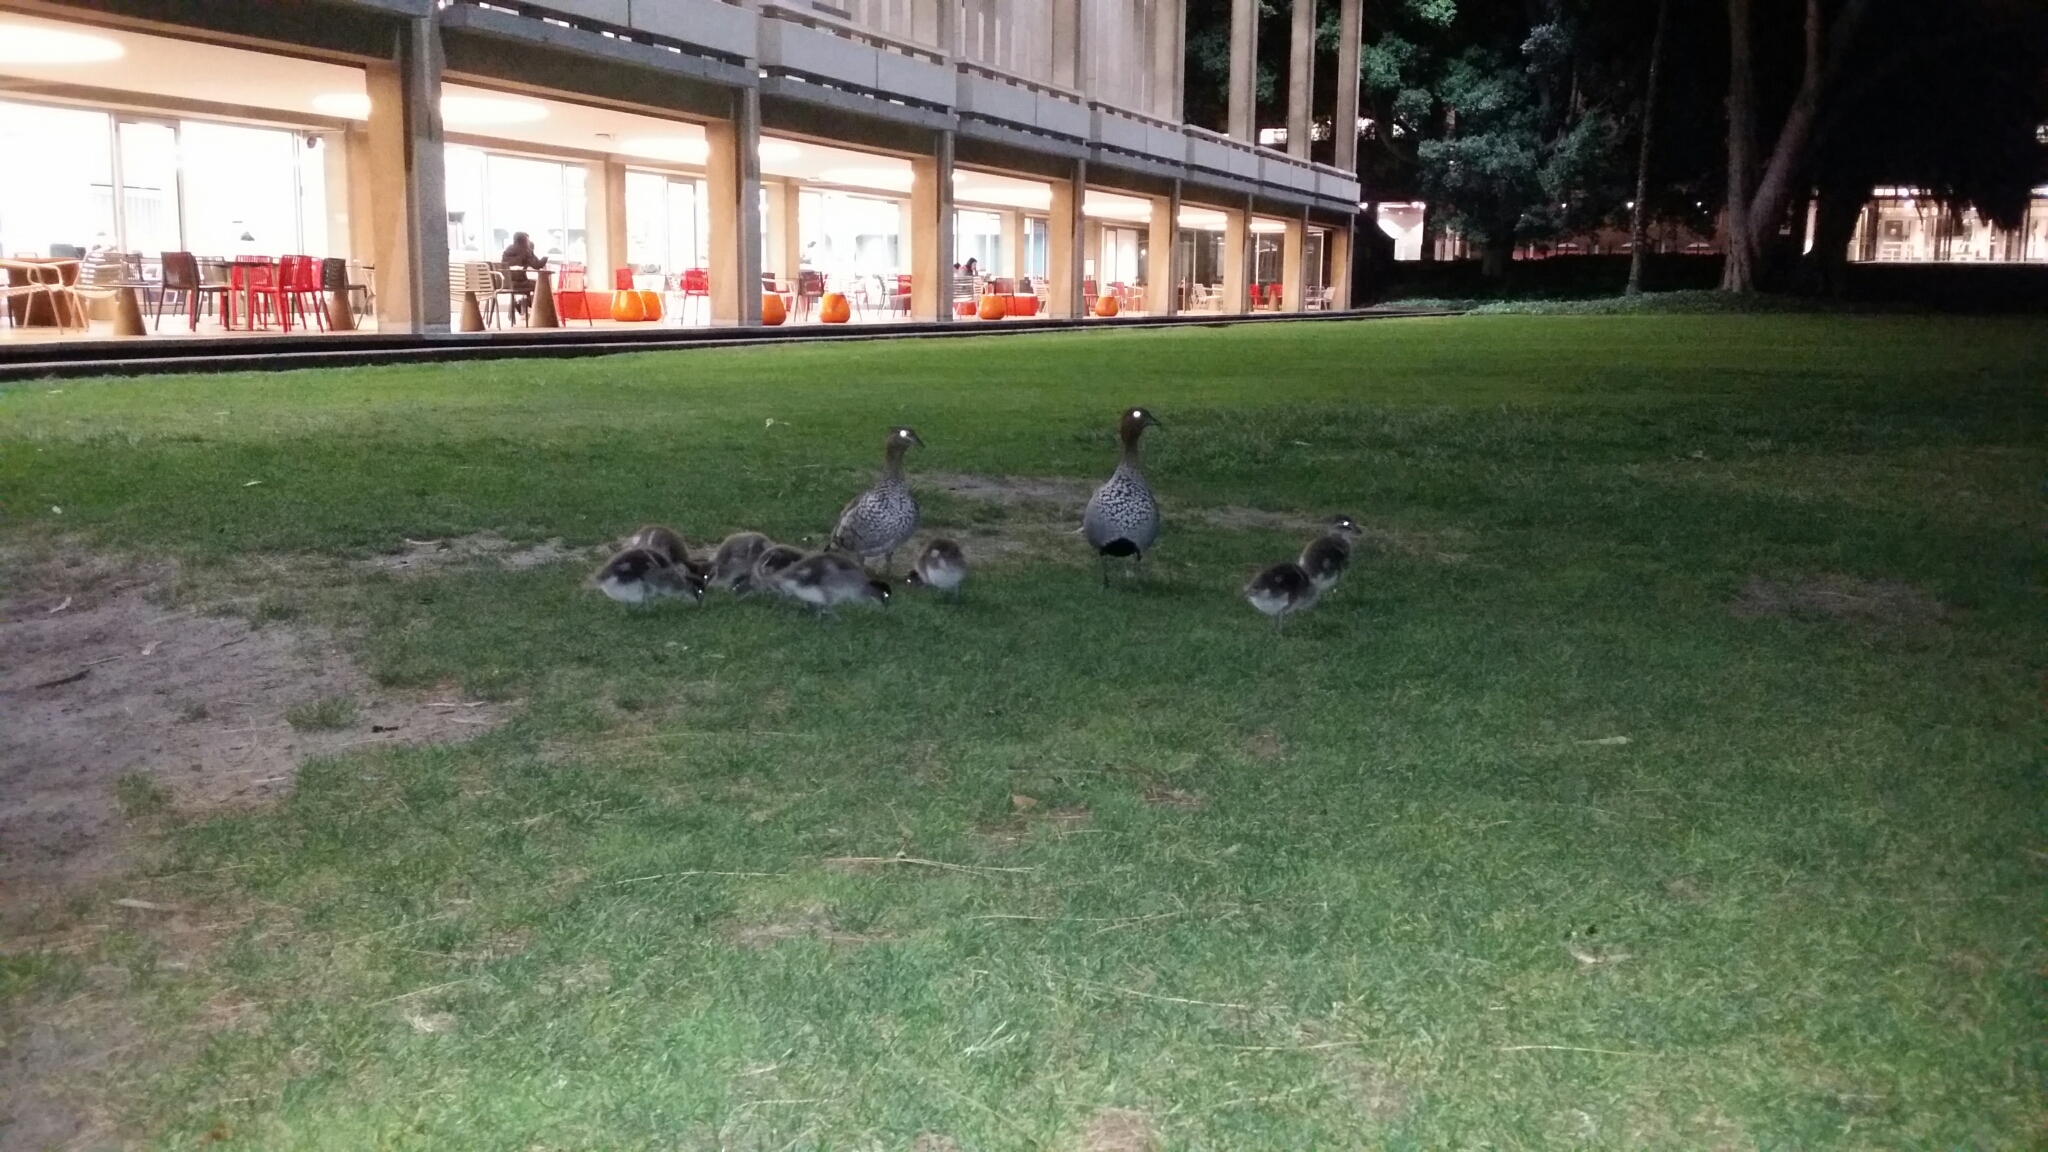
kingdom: Animalia
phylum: Chordata
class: Aves
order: Anseriformes
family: Anatidae
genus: Chenonetta
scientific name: Chenonetta jubata
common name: Maned duck
